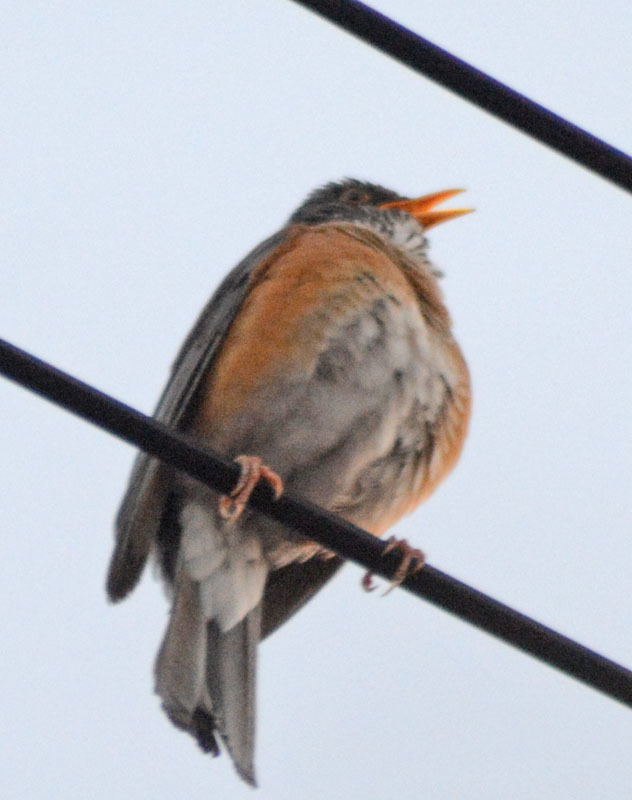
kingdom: Animalia
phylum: Chordata
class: Aves
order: Passeriformes
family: Turdidae
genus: Turdus
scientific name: Turdus rufopalliatus
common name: Rufous-backed robin
